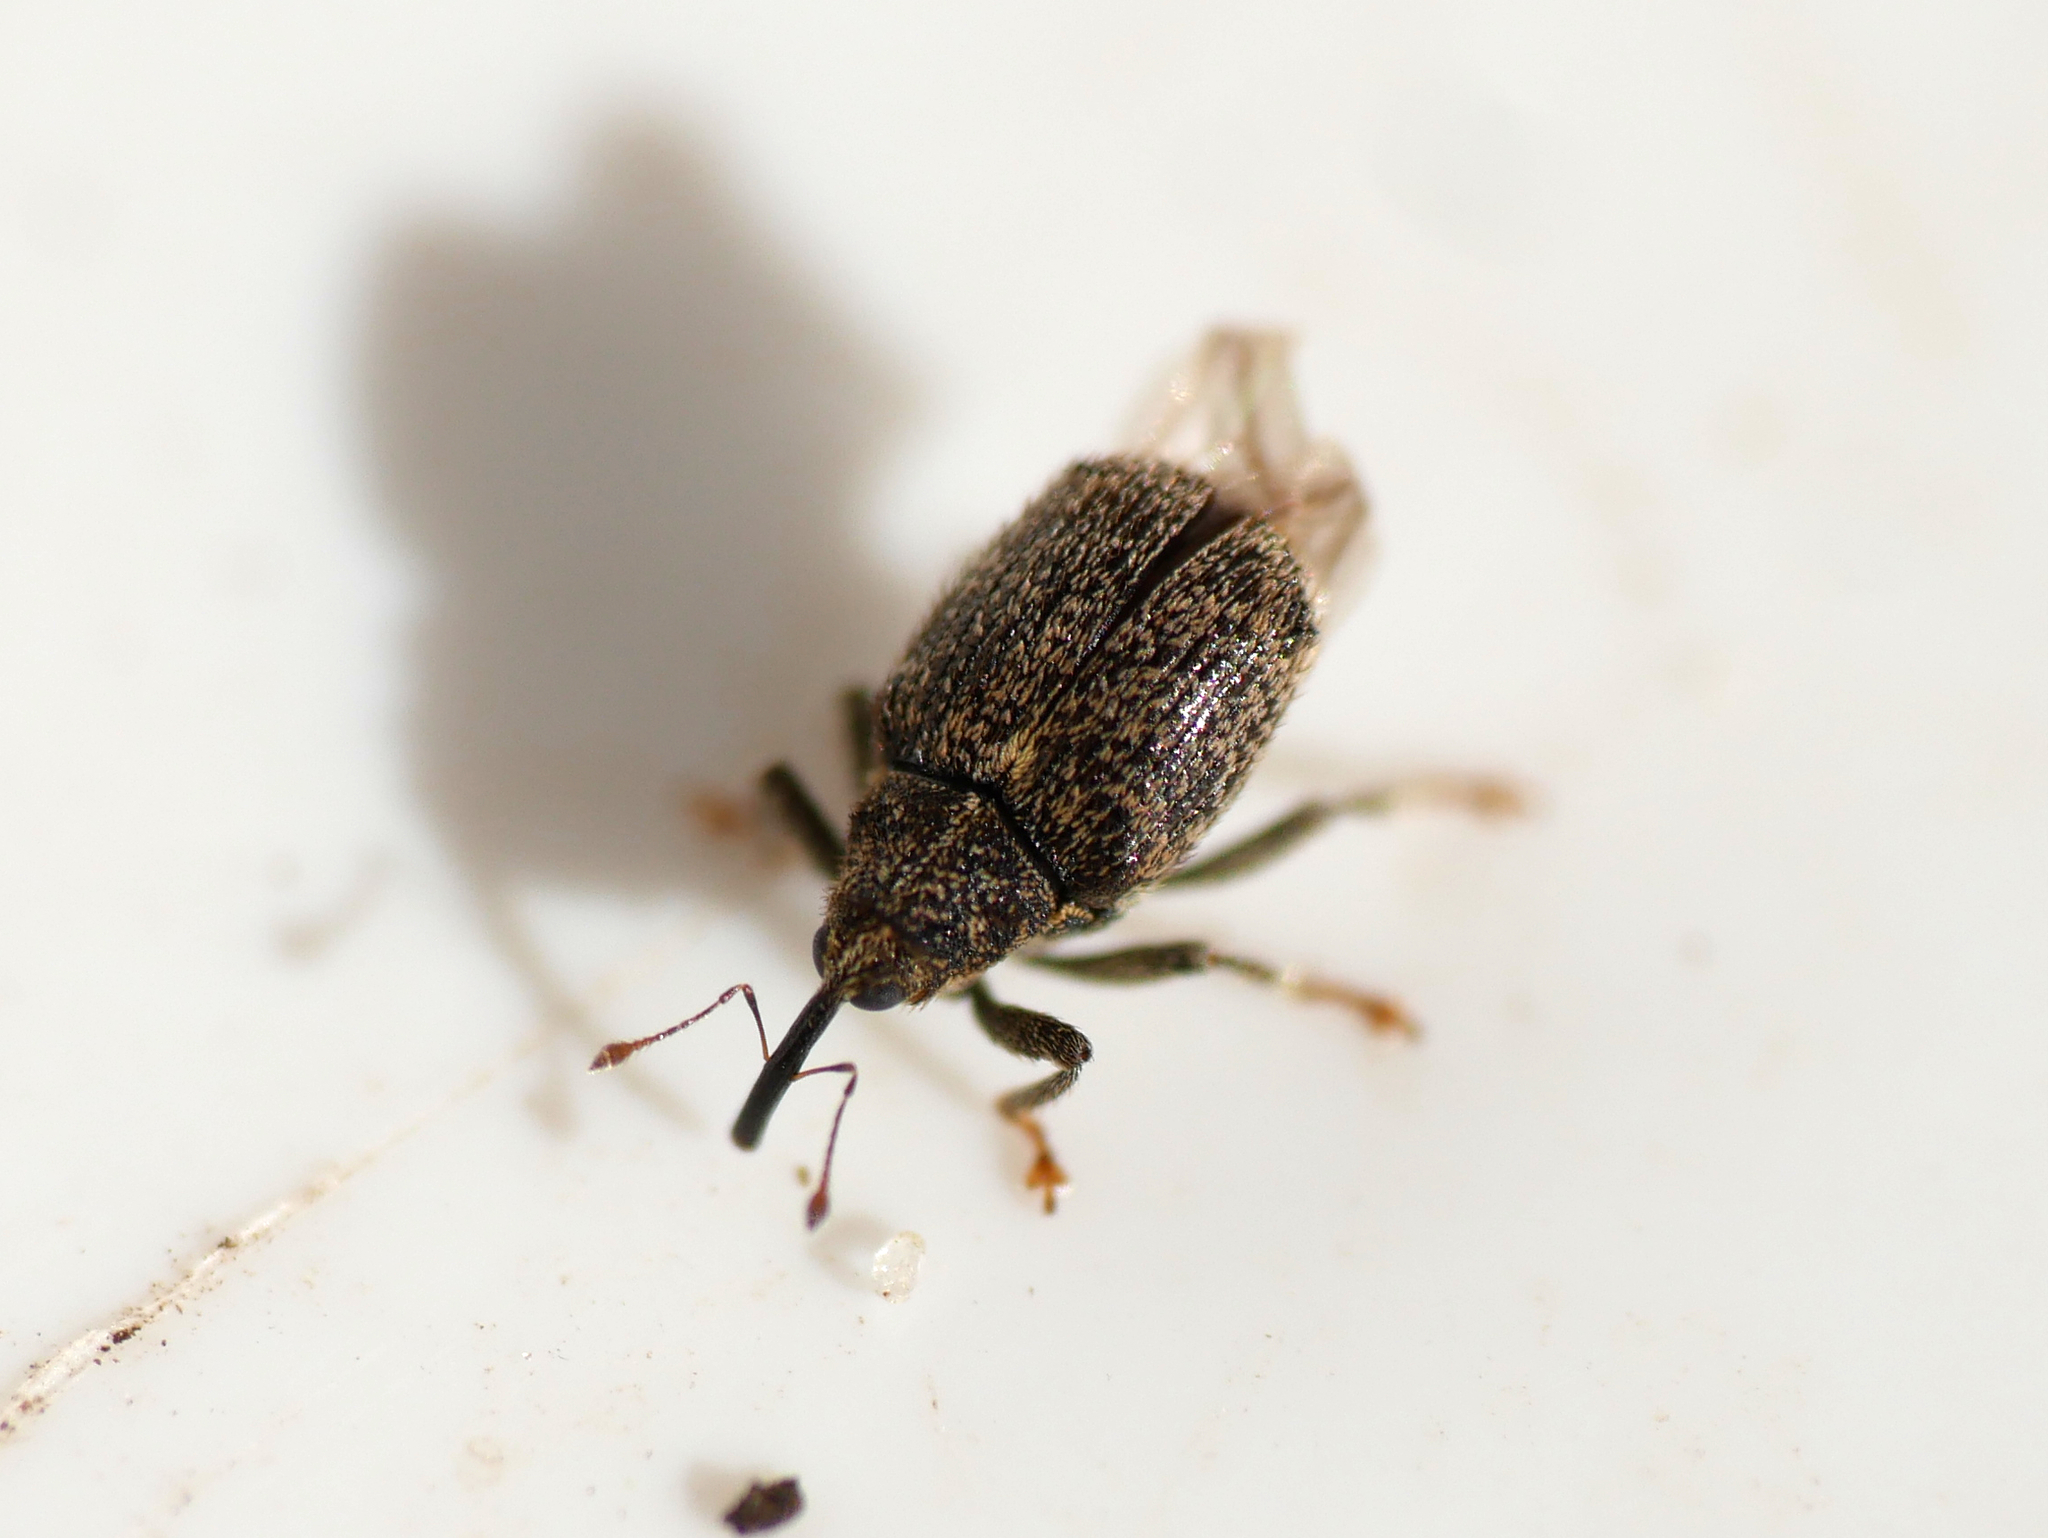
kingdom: Animalia
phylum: Arthropoda
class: Insecta
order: Coleoptera
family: Curculionidae
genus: Ceutorhynchus
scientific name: Ceutorhynchus pallidactylus
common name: Cabbage stem weavil
